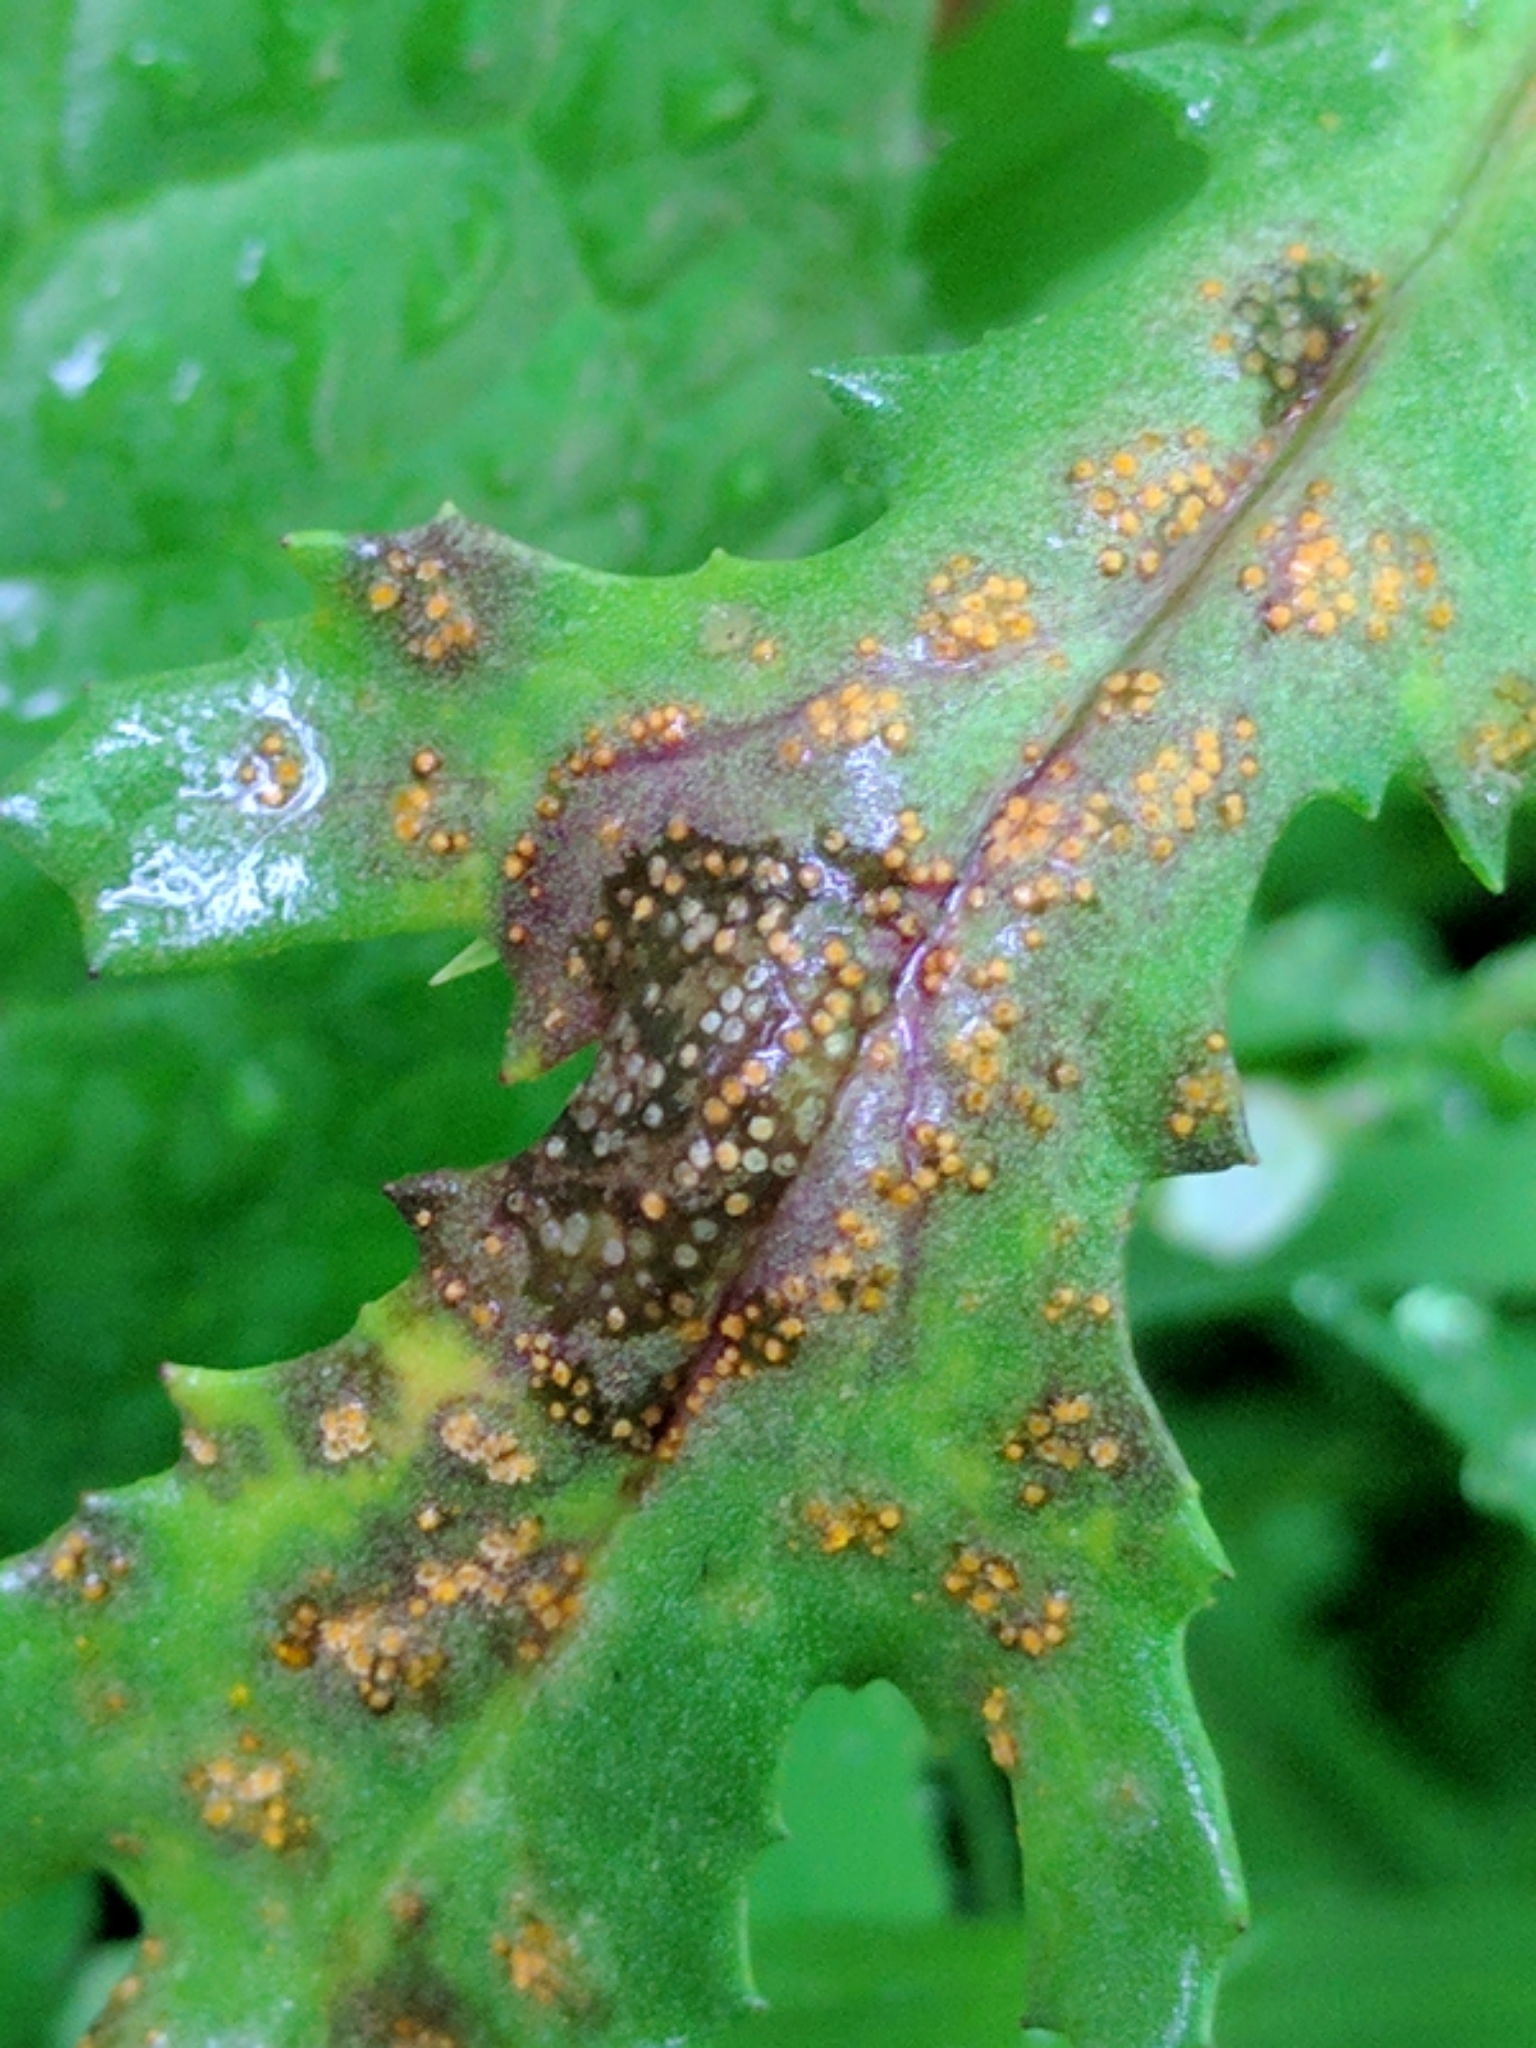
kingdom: Fungi
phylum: Basidiomycota
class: Pucciniomycetes
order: Pucciniales
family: Pucciniaceae
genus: Puccinia
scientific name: Puccinia lagenophorae
